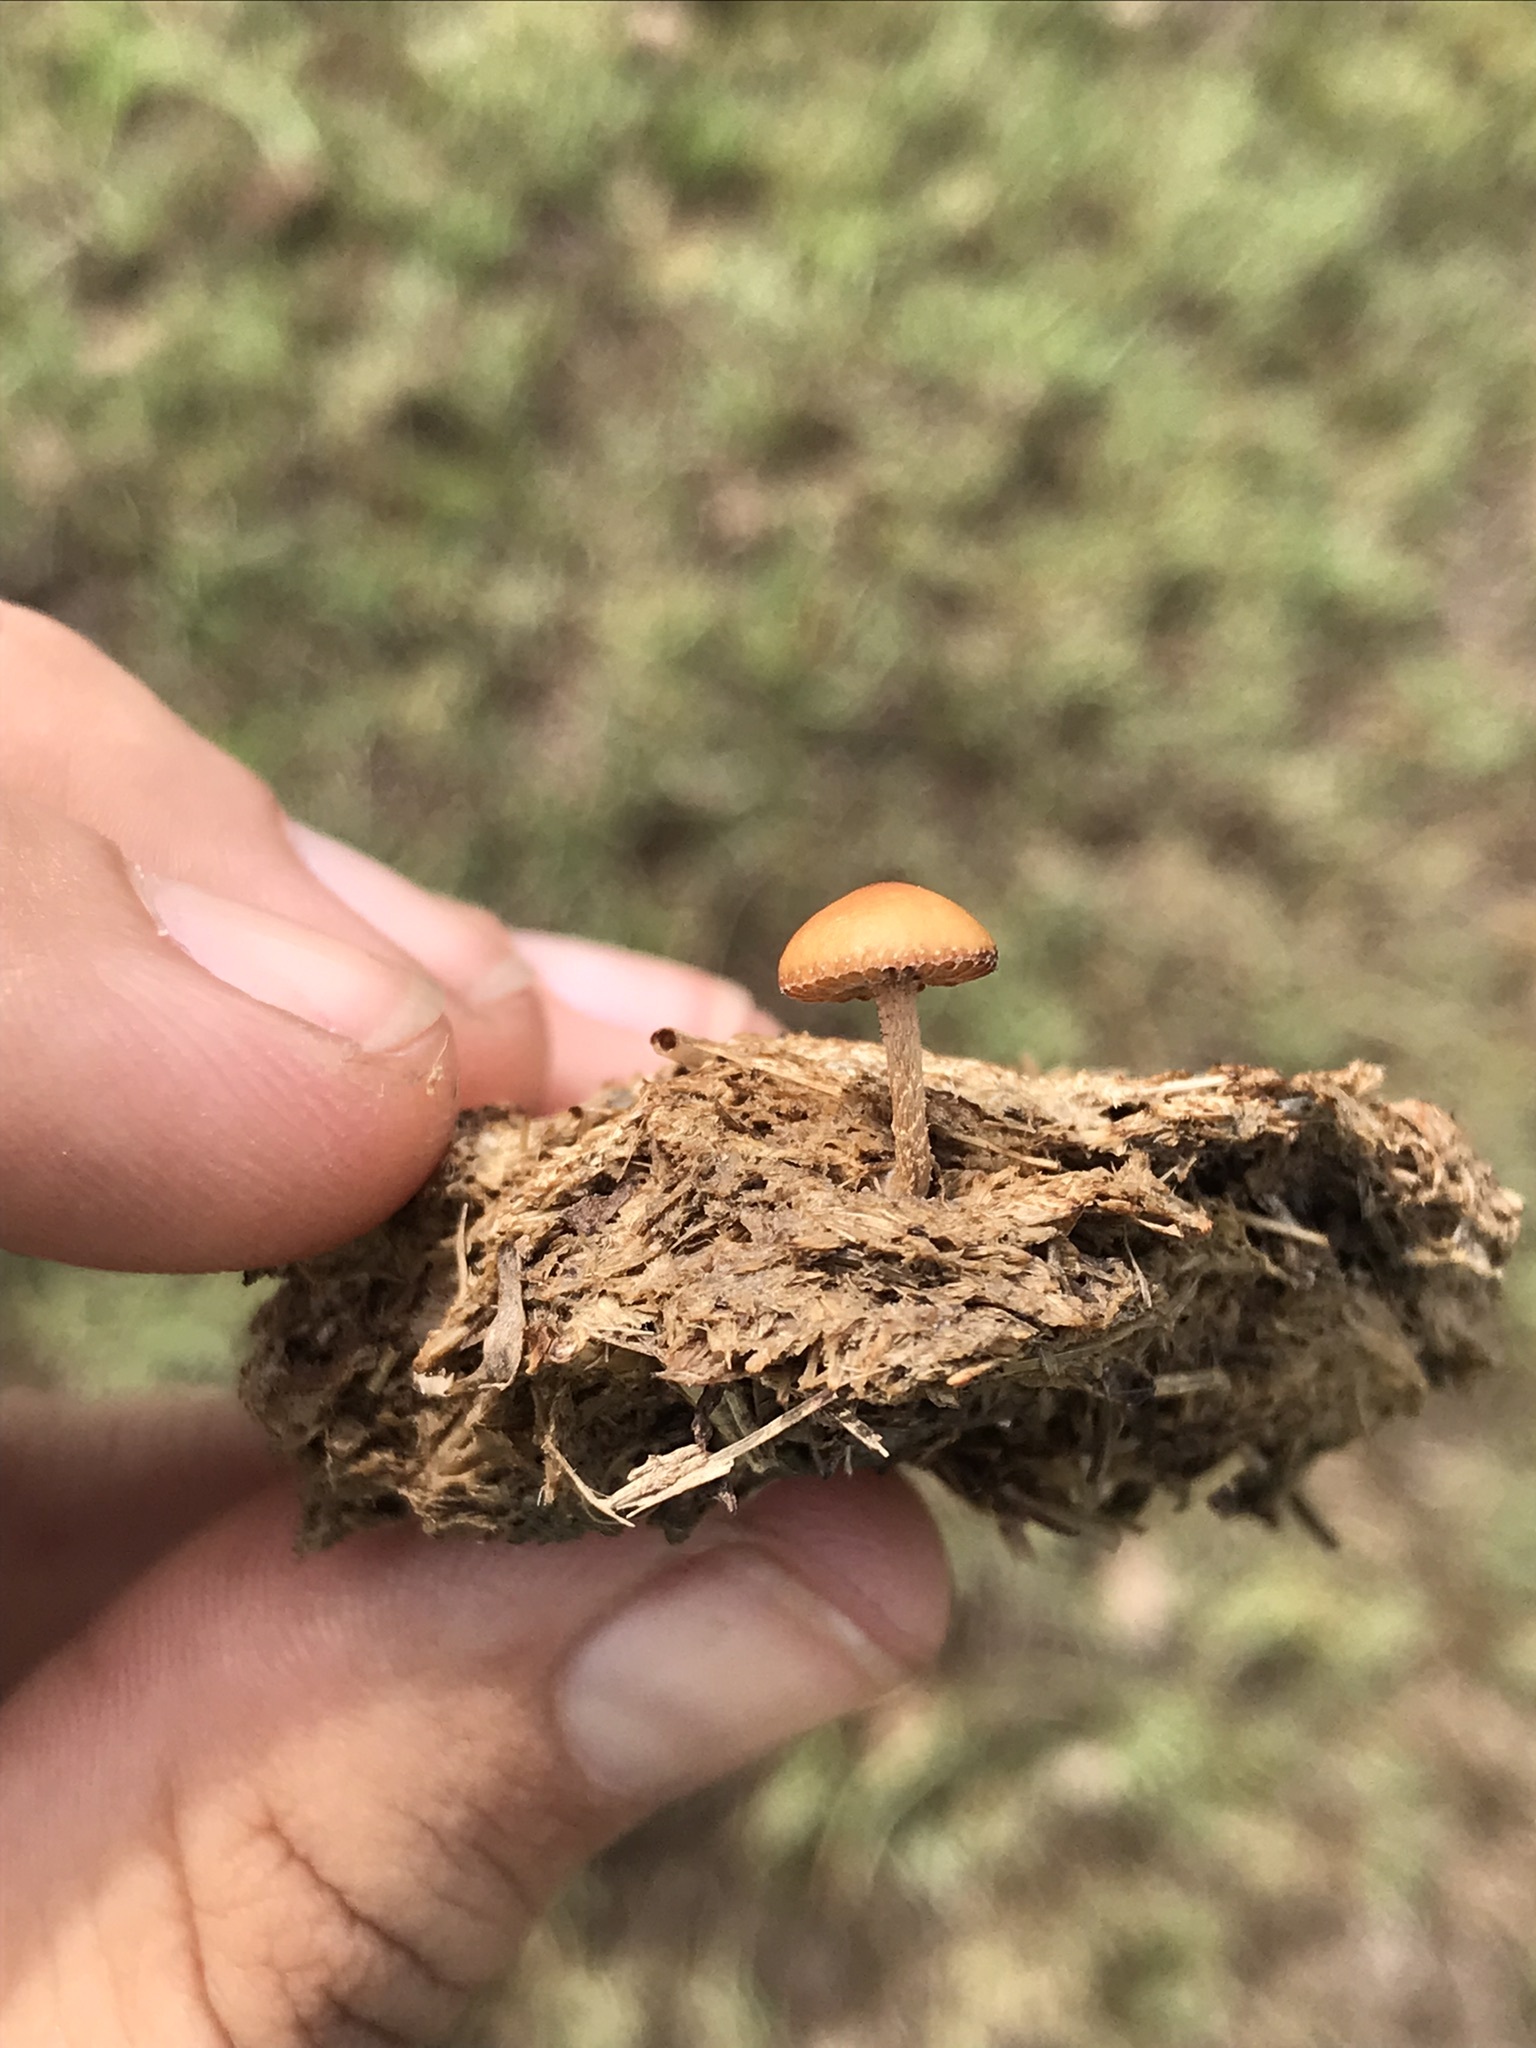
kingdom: Fungi
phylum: Basidiomycota
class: Agaricomycetes
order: Agaricales
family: Strophariaceae
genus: Deconica
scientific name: Deconica coprophila
